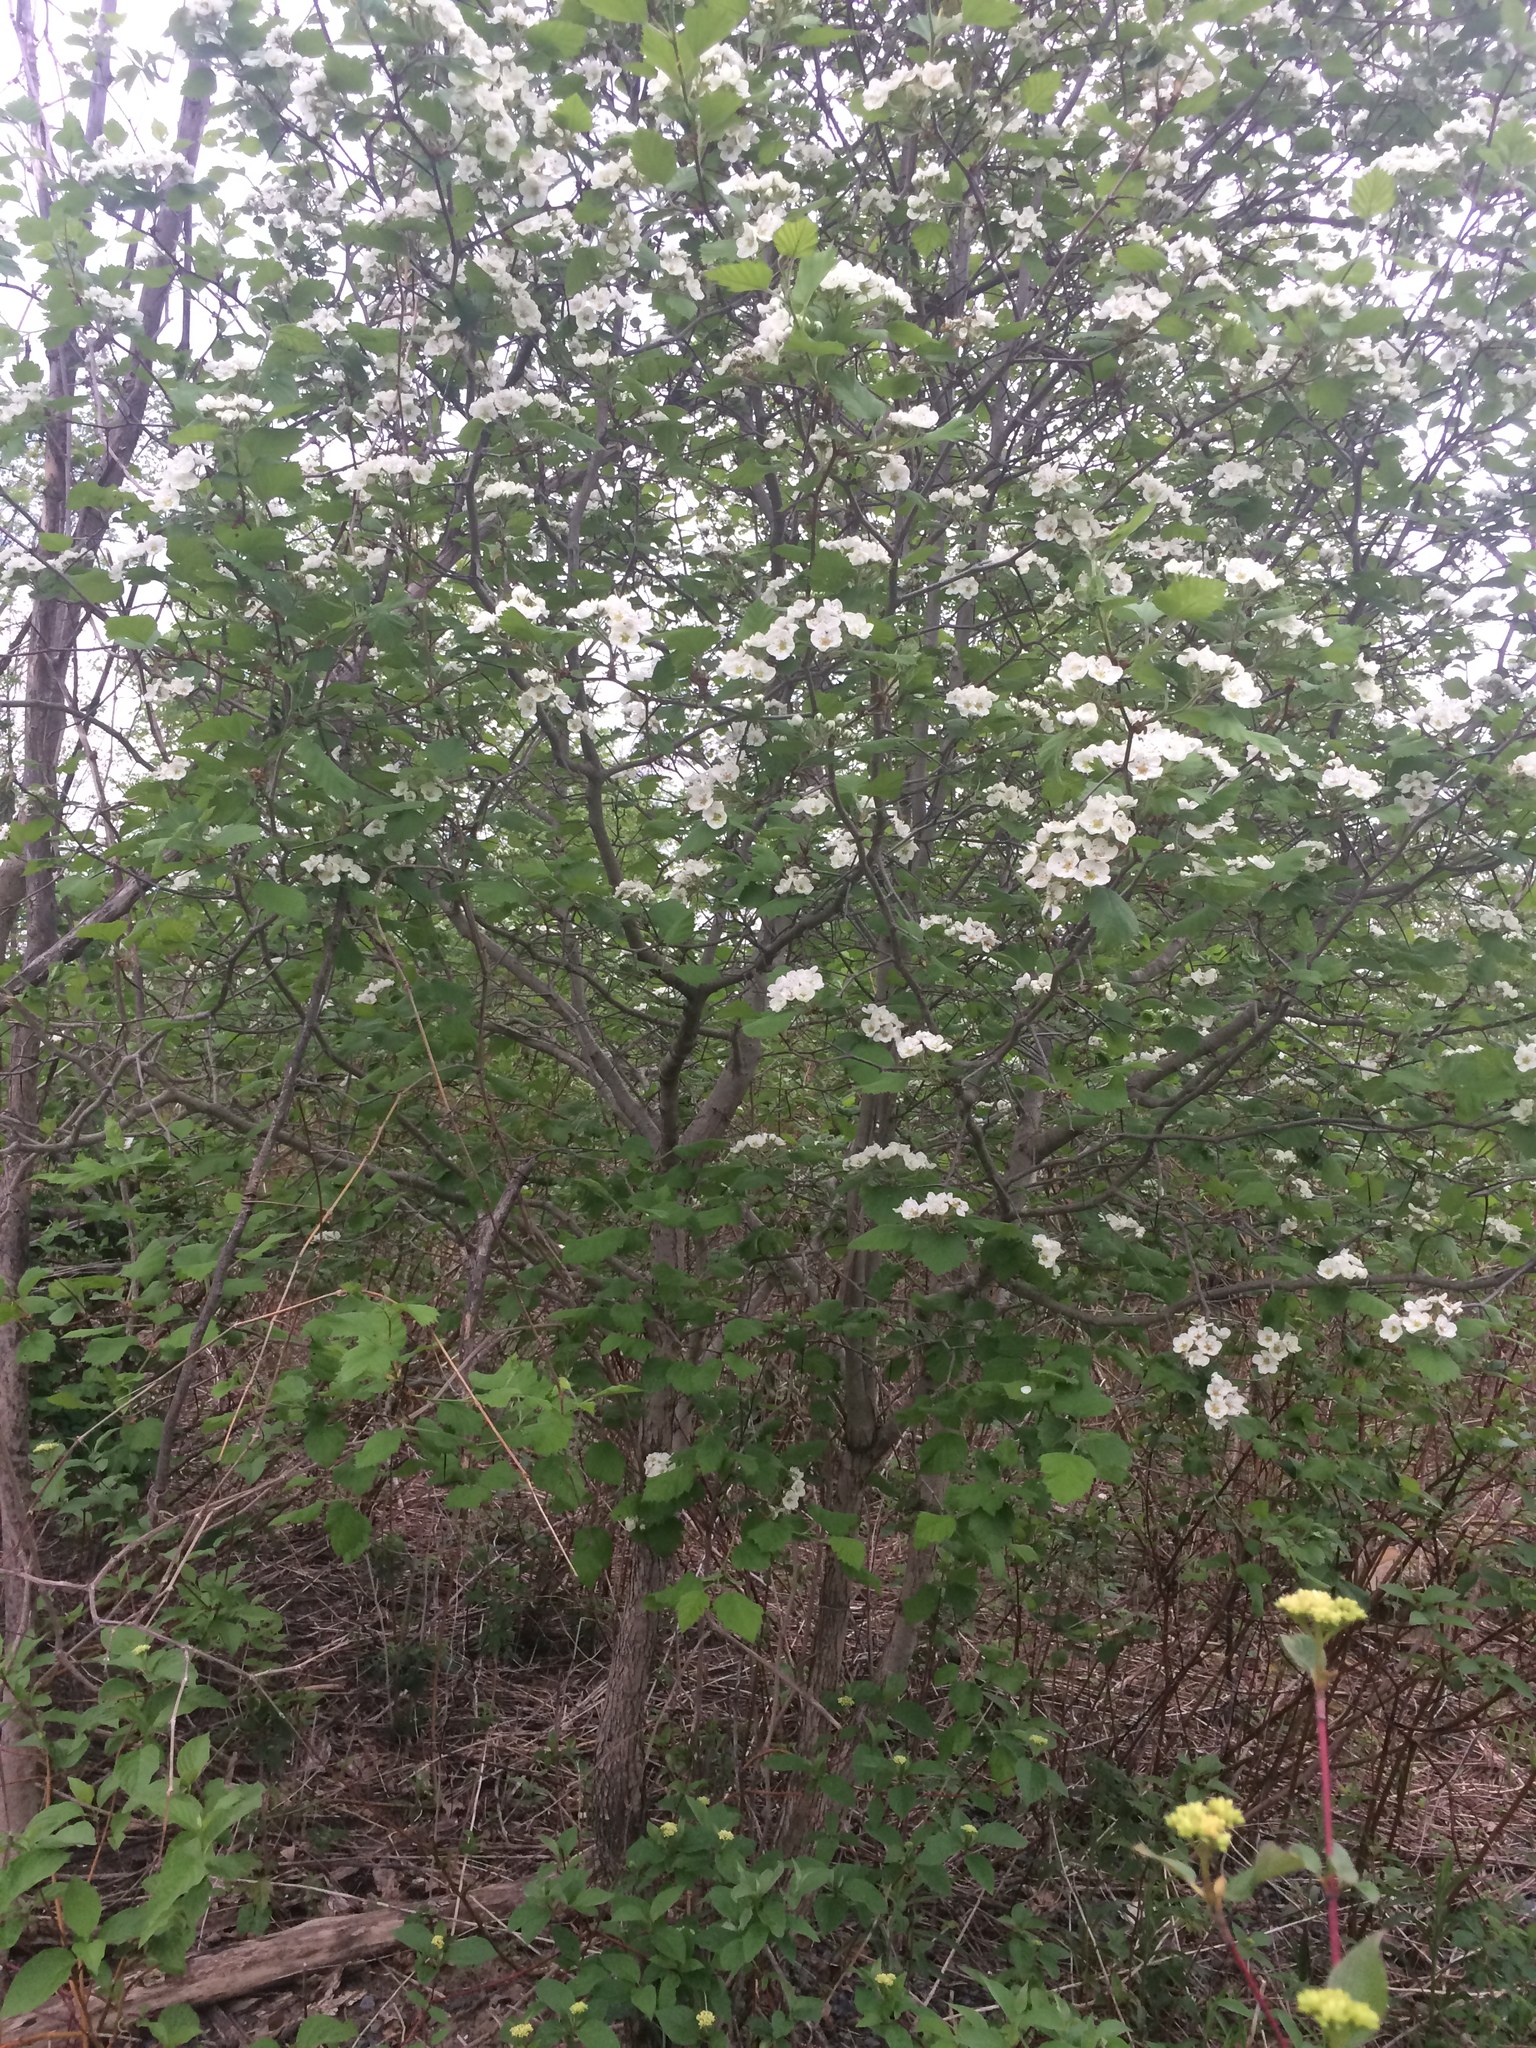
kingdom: Plantae
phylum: Tracheophyta
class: Magnoliopsida
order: Rosales
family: Rosaceae
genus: Crataegus
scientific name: Crataegus submollis
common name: Hairy cockspurthorn
